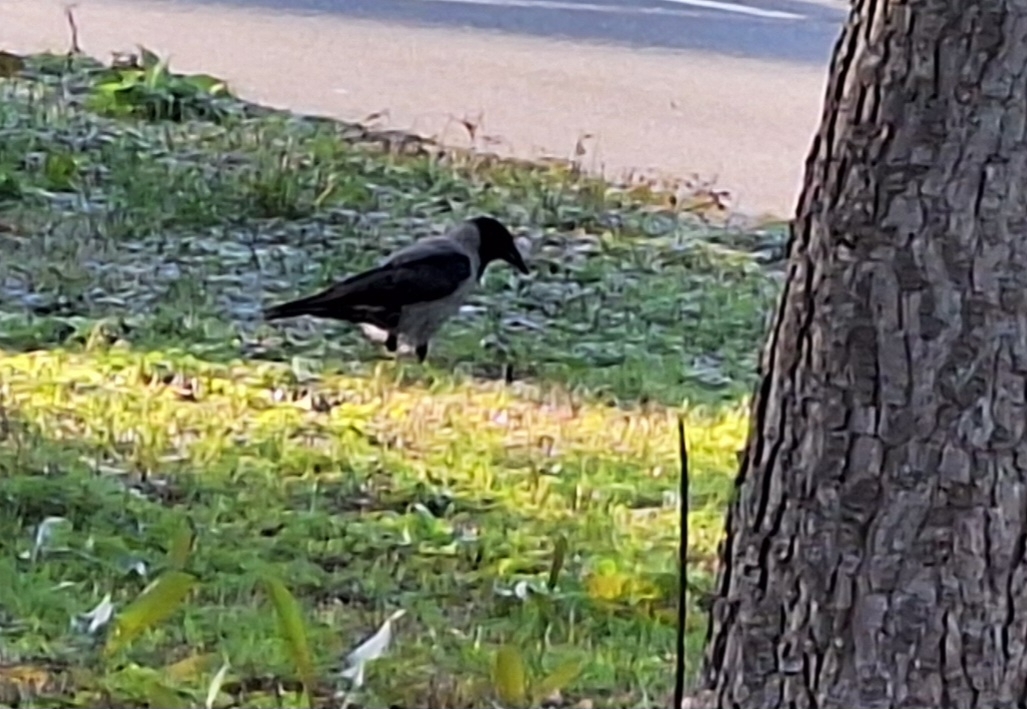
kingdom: Animalia
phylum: Chordata
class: Aves
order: Passeriformes
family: Corvidae
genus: Corvus
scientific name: Corvus cornix
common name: Hooded crow
